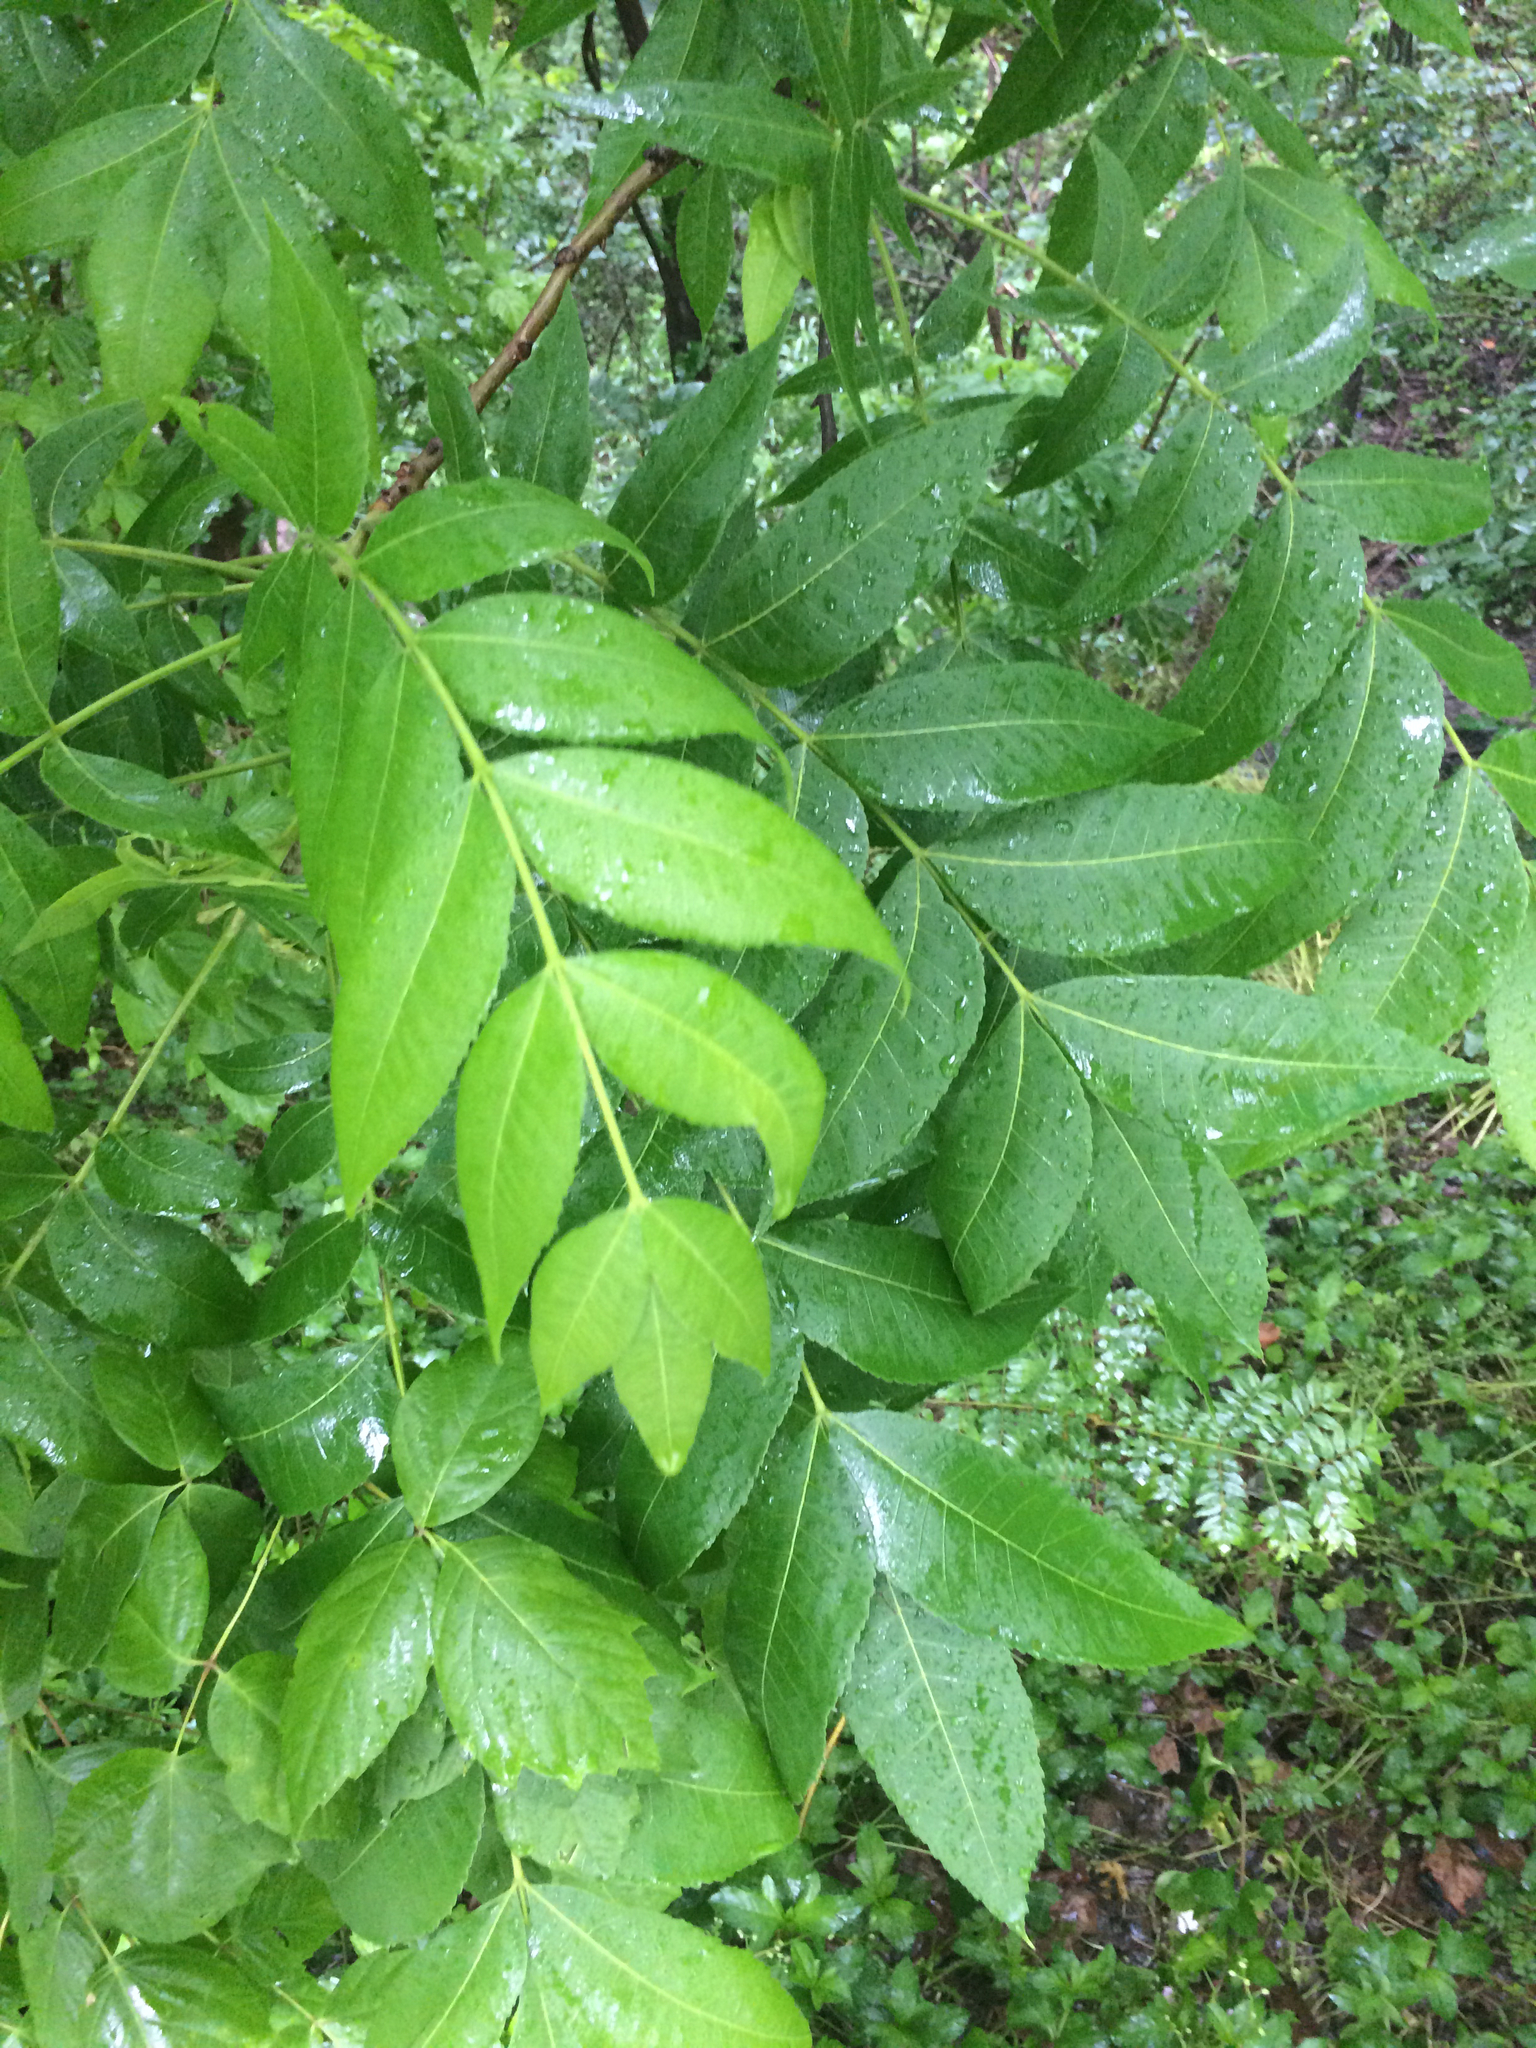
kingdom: Plantae
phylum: Tracheophyta
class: Magnoliopsida
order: Fagales
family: Juglandaceae
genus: Carya
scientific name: Carya illinoinensis
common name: Pecan
